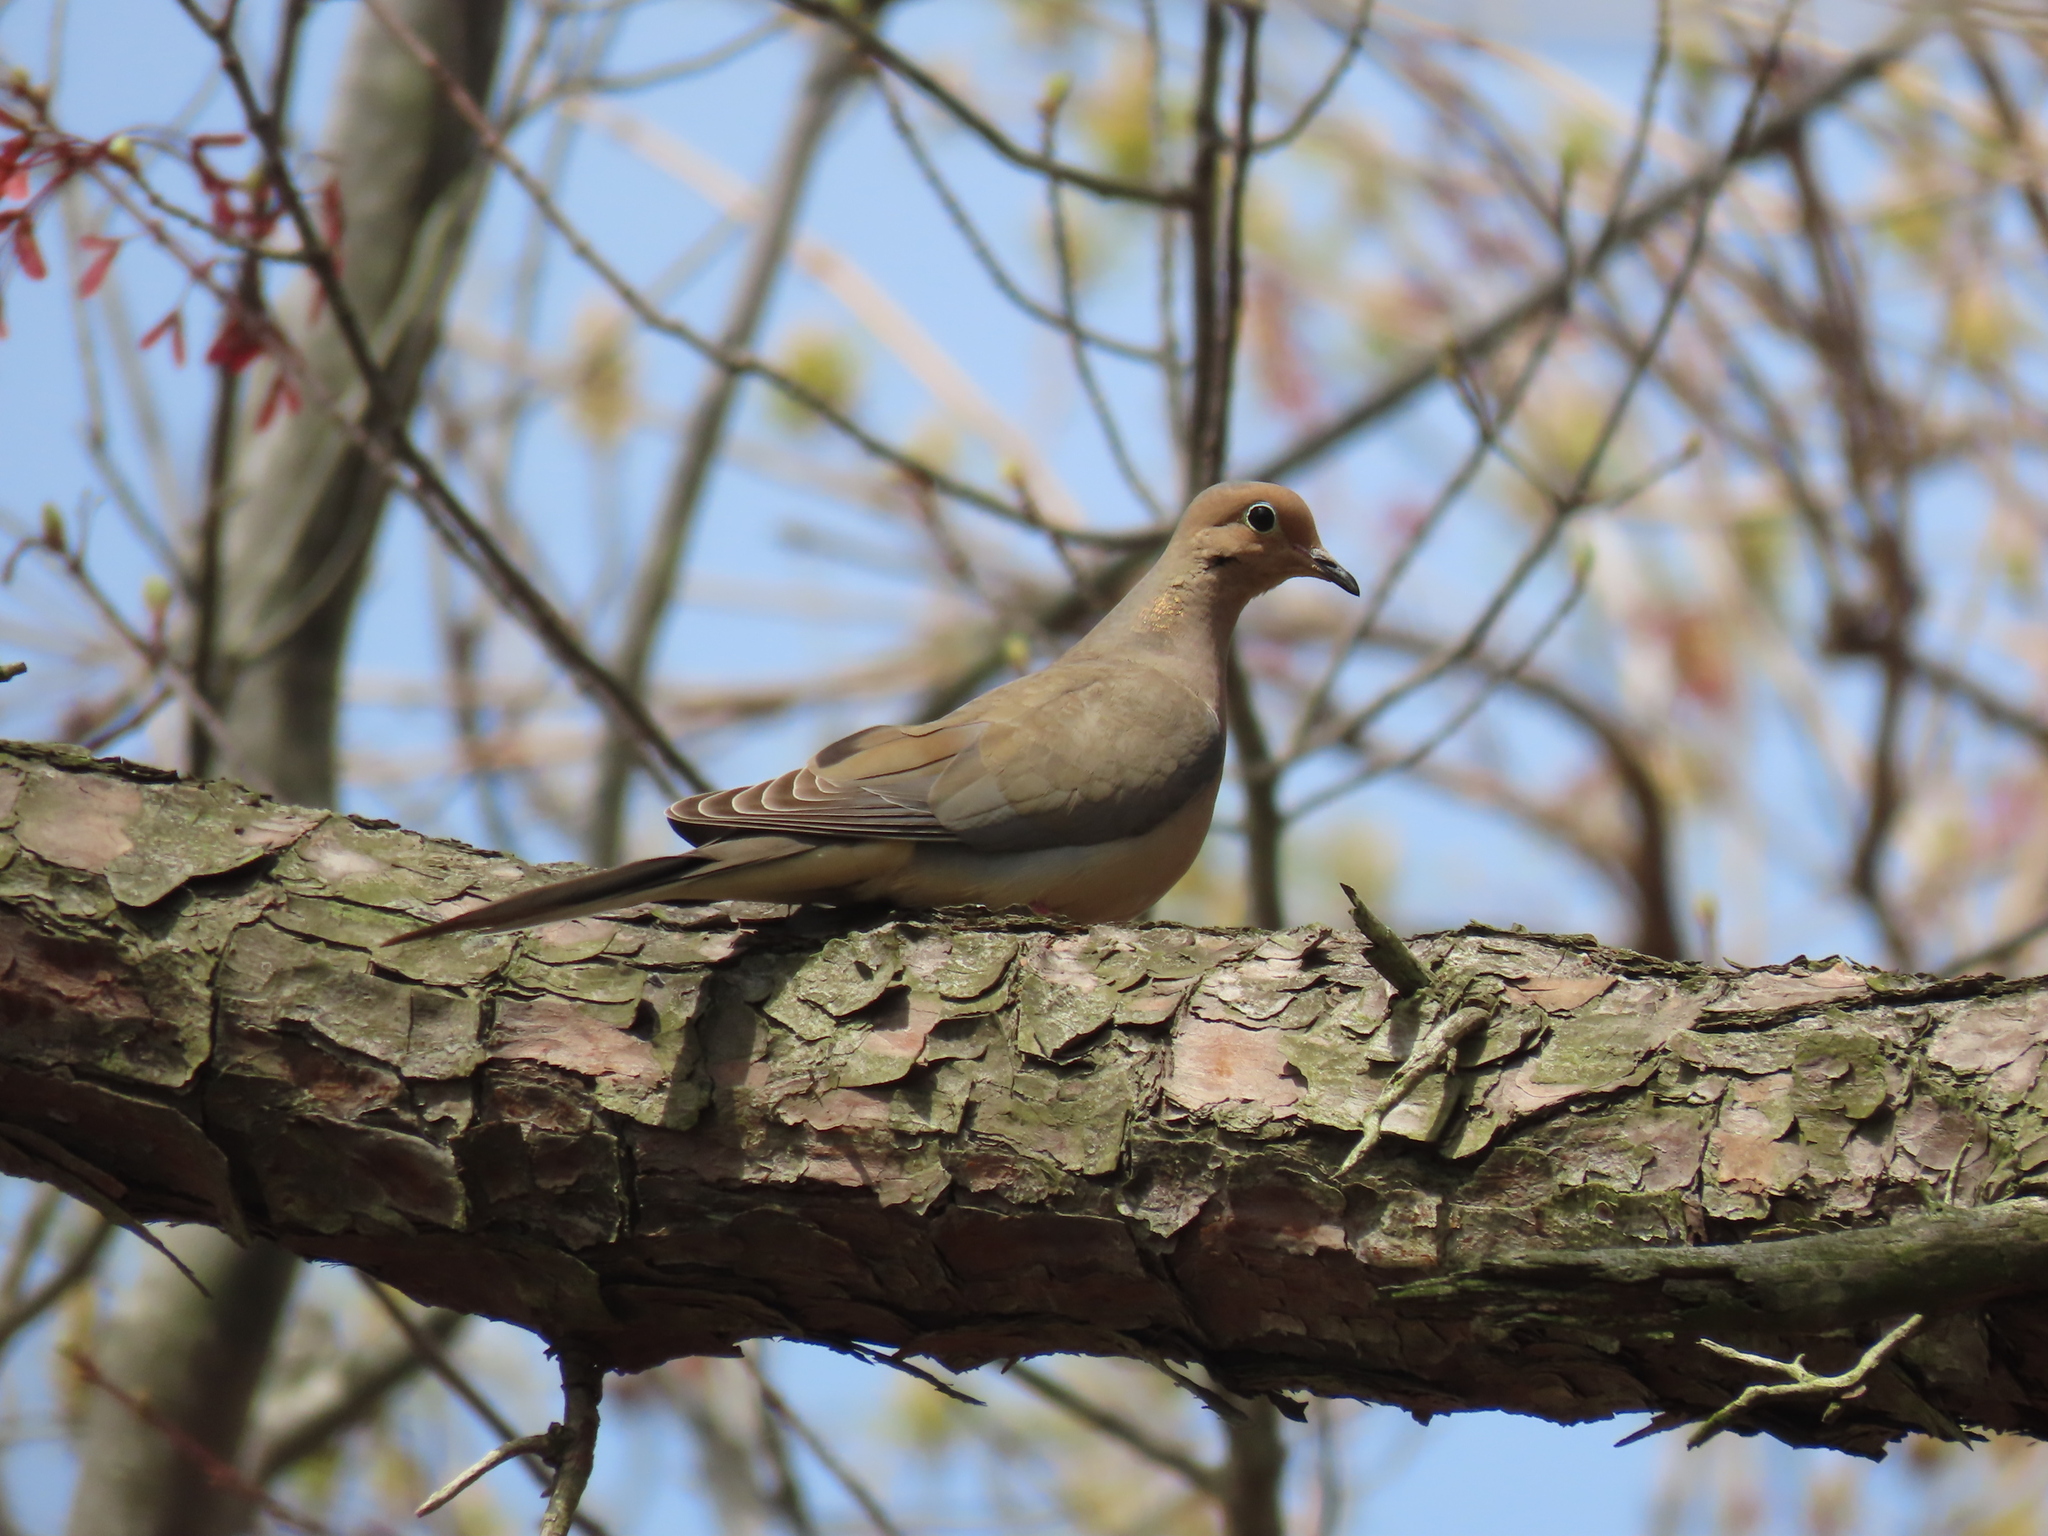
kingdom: Animalia
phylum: Chordata
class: Aves
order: Columbiformes
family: Columbidae
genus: Zenaida
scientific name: Zenaida macroura
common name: Mourning dove
